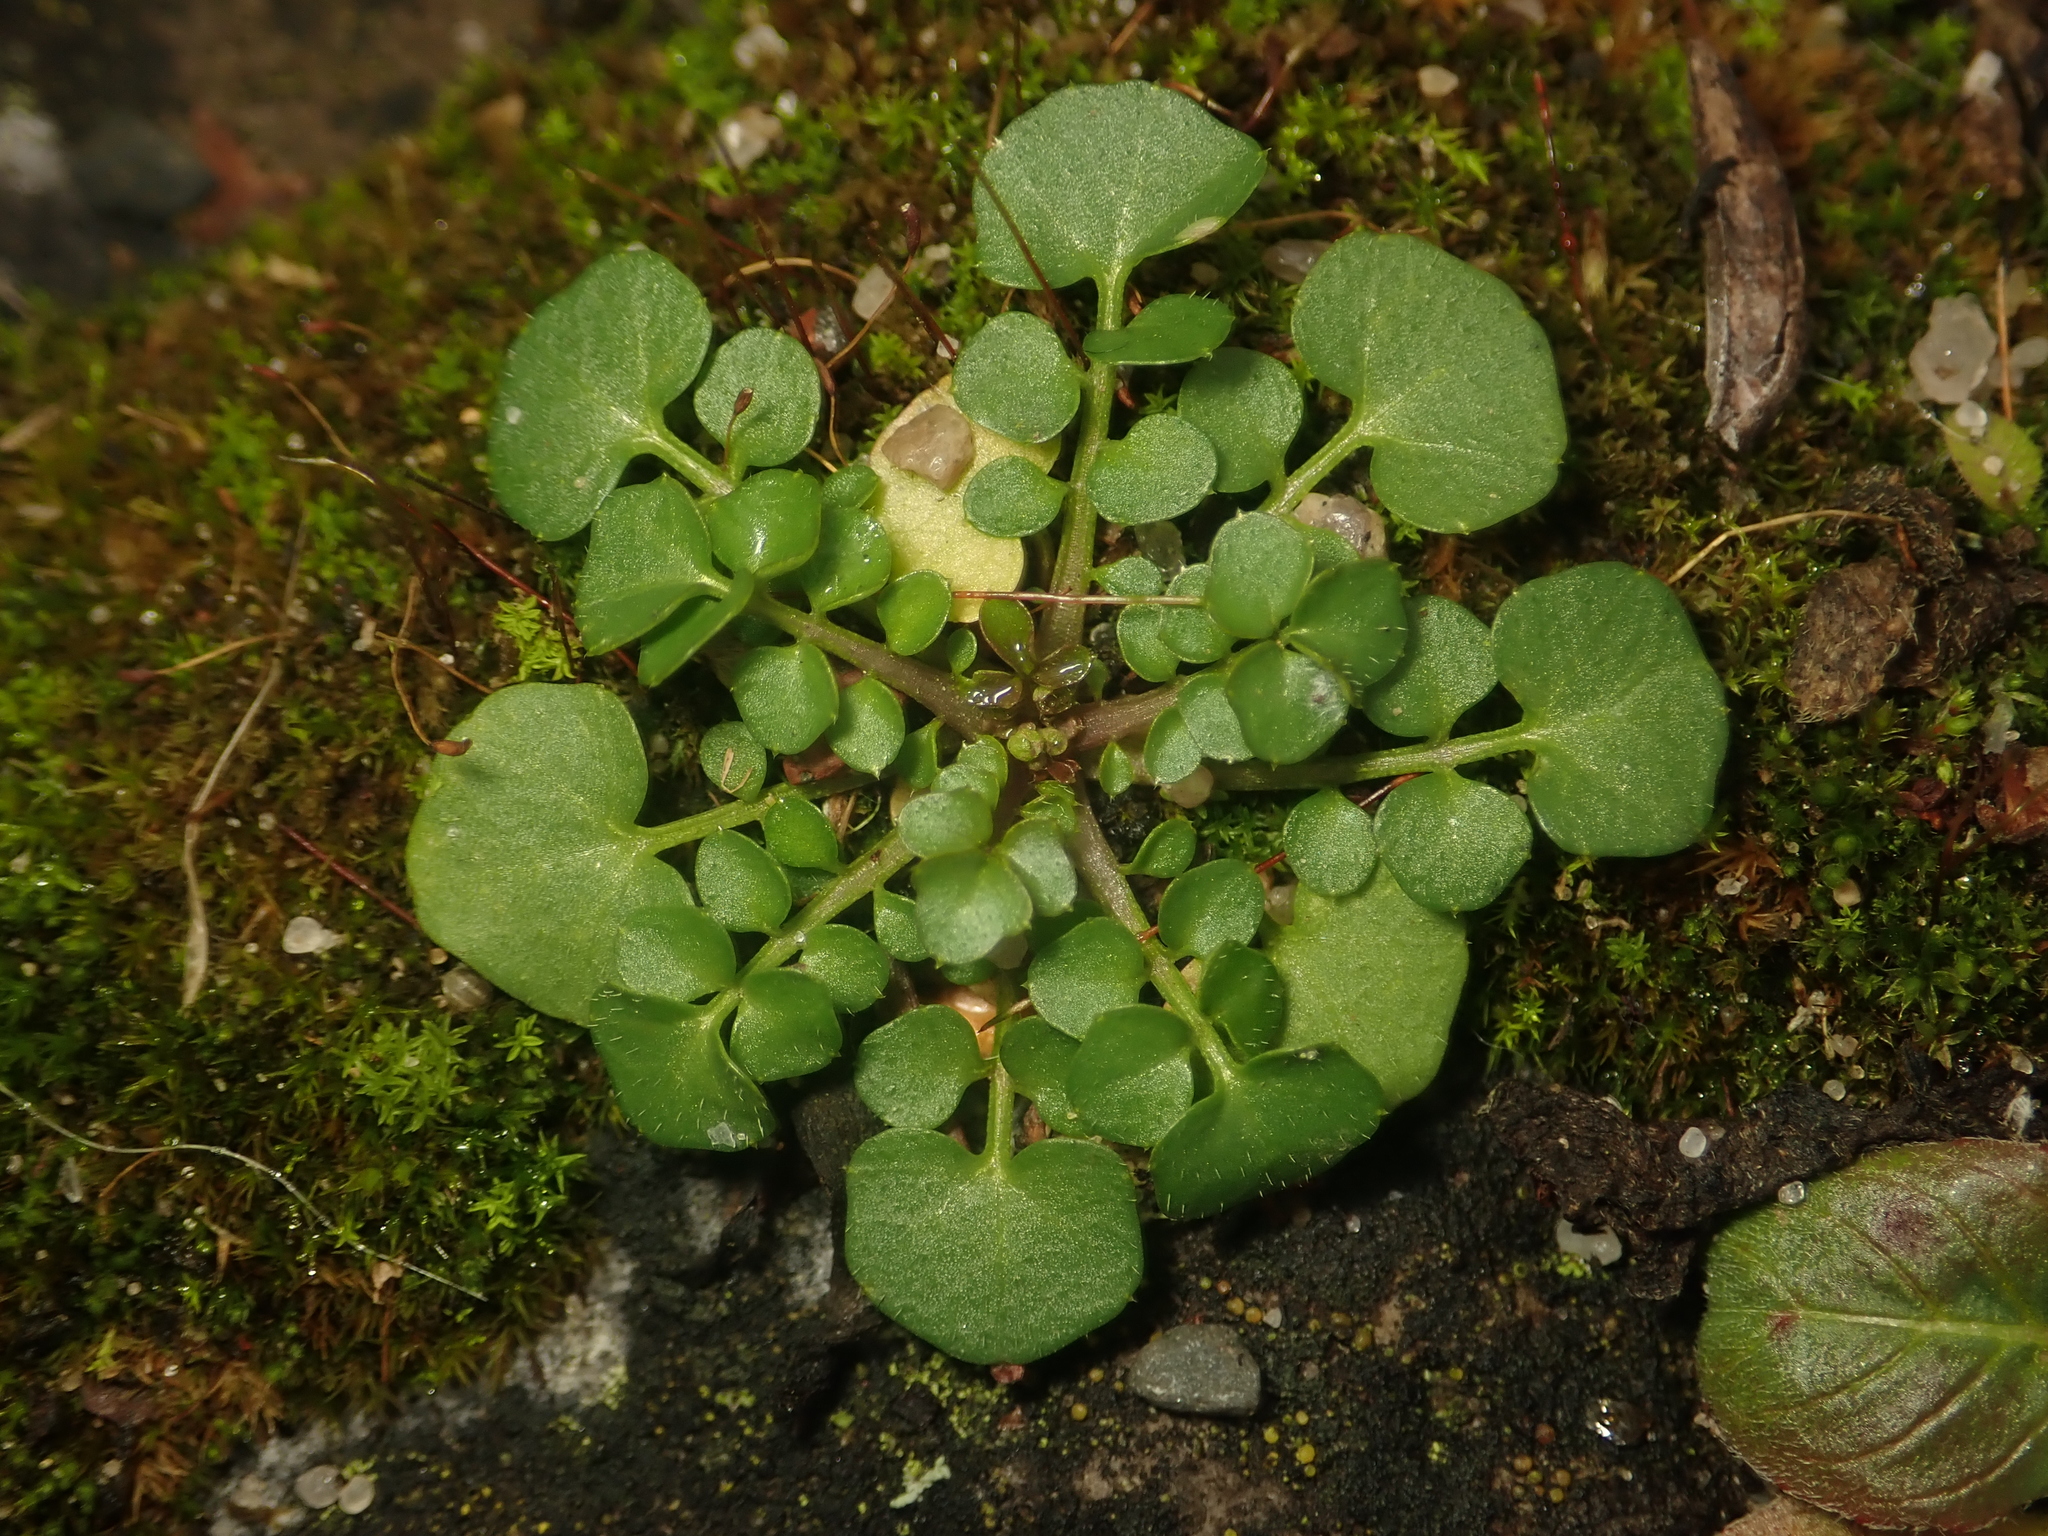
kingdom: Plantae
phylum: Tracheophyta
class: Magnoliopsida
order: Brassicales
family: Brassicaceae
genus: Cardamine
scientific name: Cardamine hirsuta
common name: Hairy bittercress
